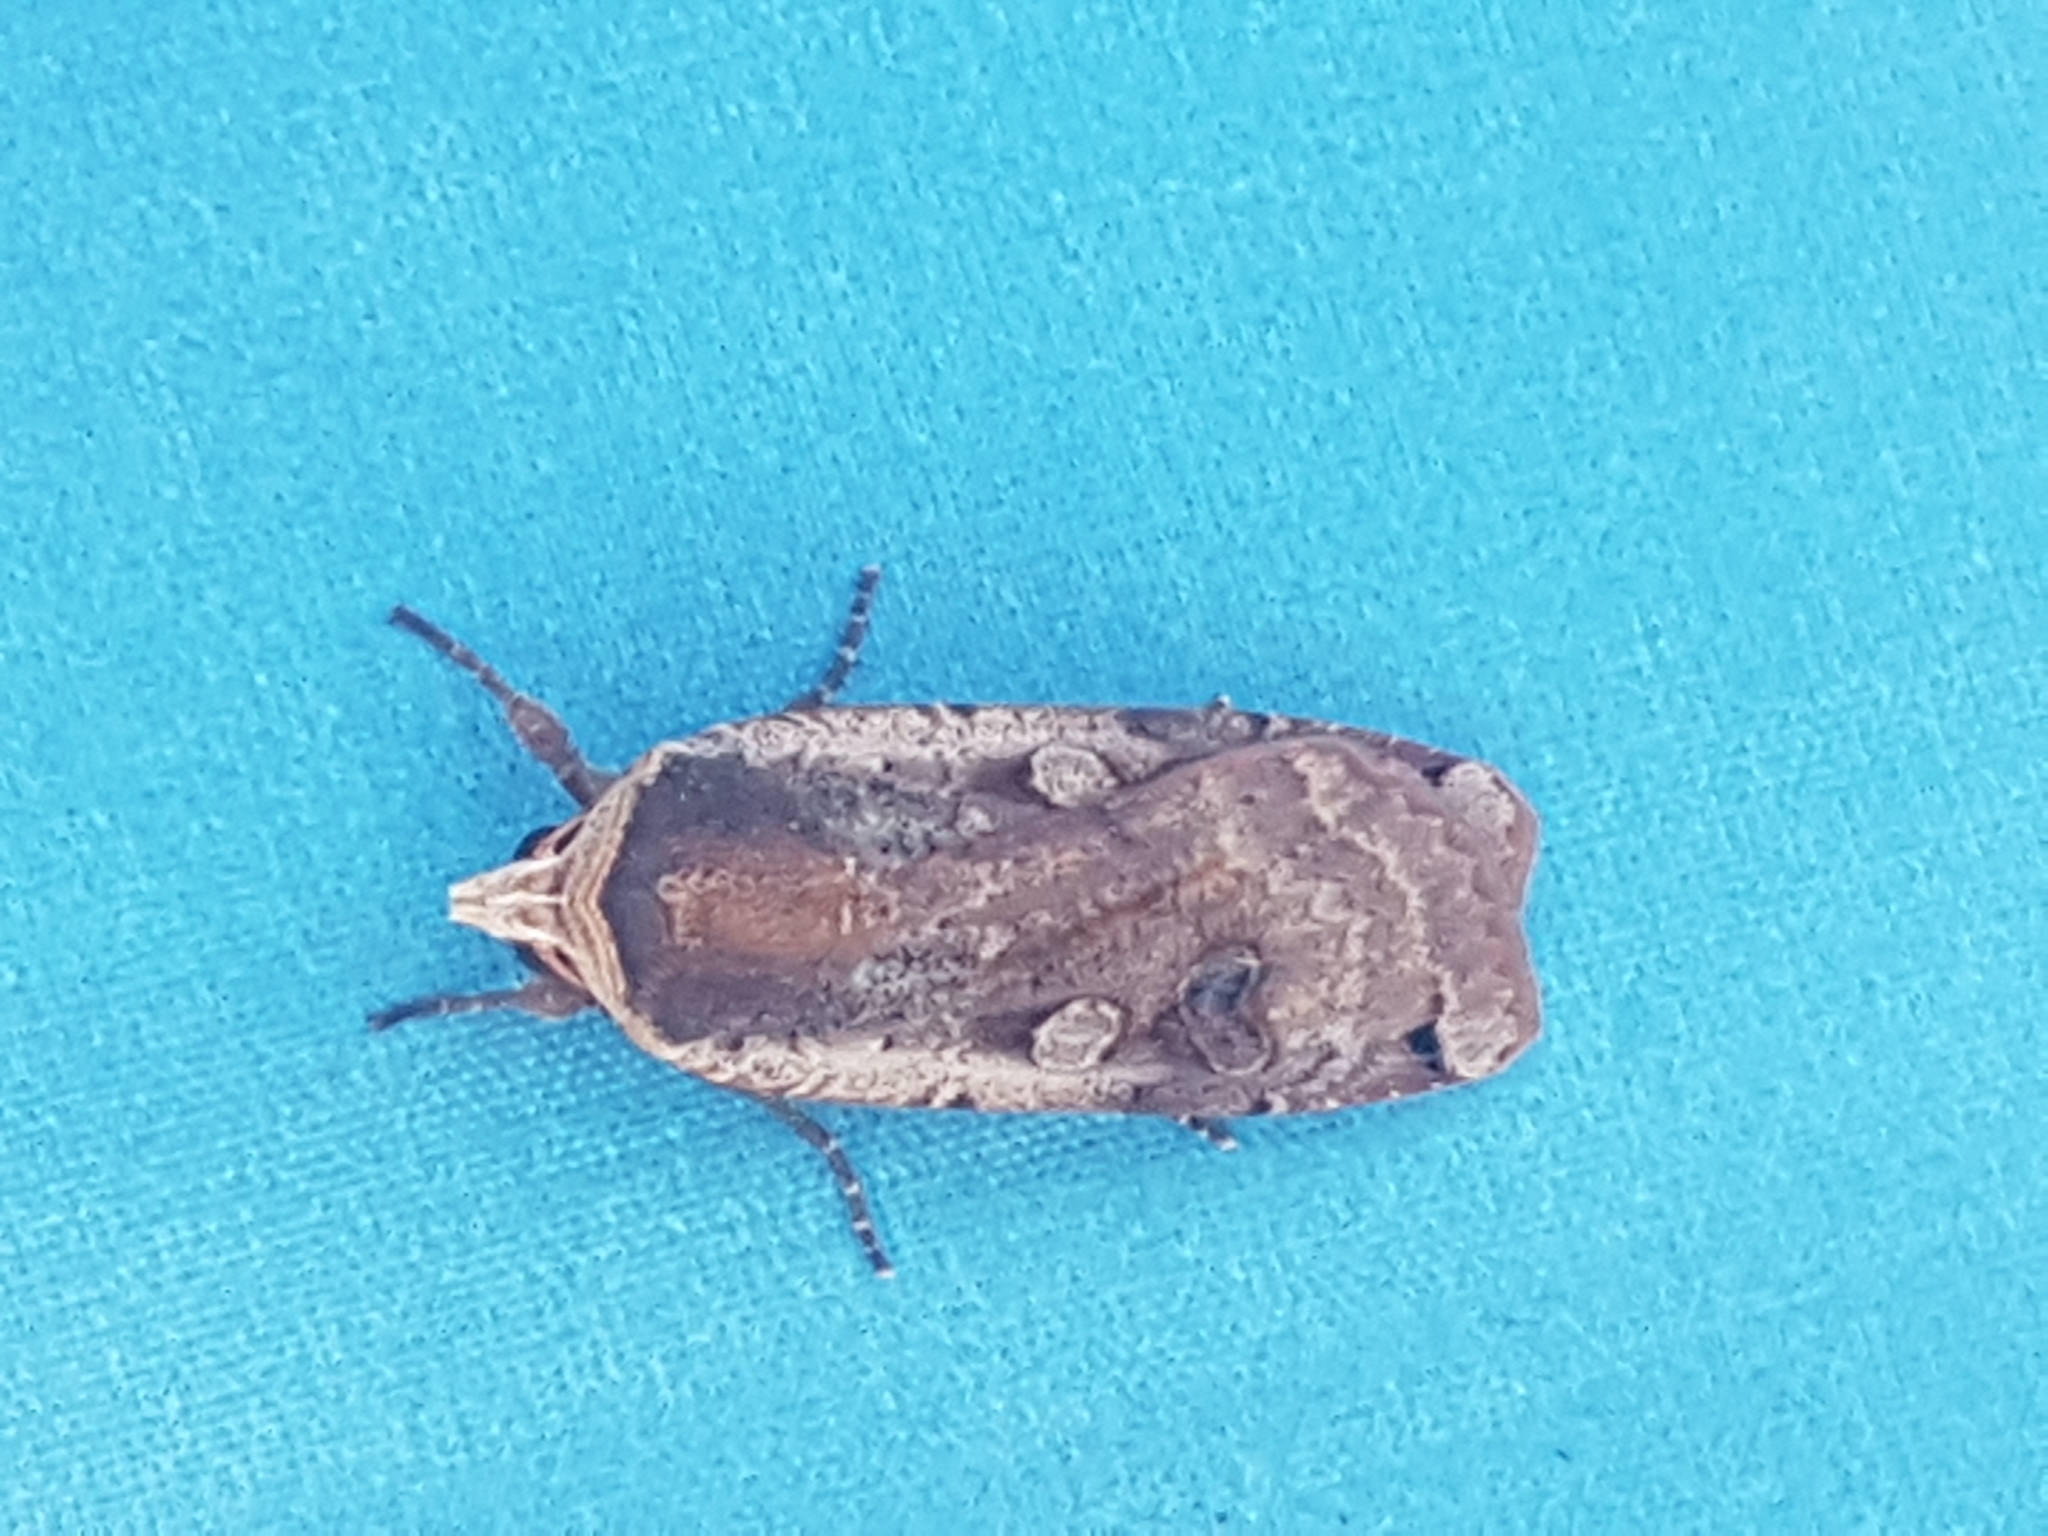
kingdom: Animalia
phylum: Arthropoda
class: Insecta
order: Lepidoptera
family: Noctuidae
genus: Noctua
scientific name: Noctua pronuba
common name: Large yellow underwing
